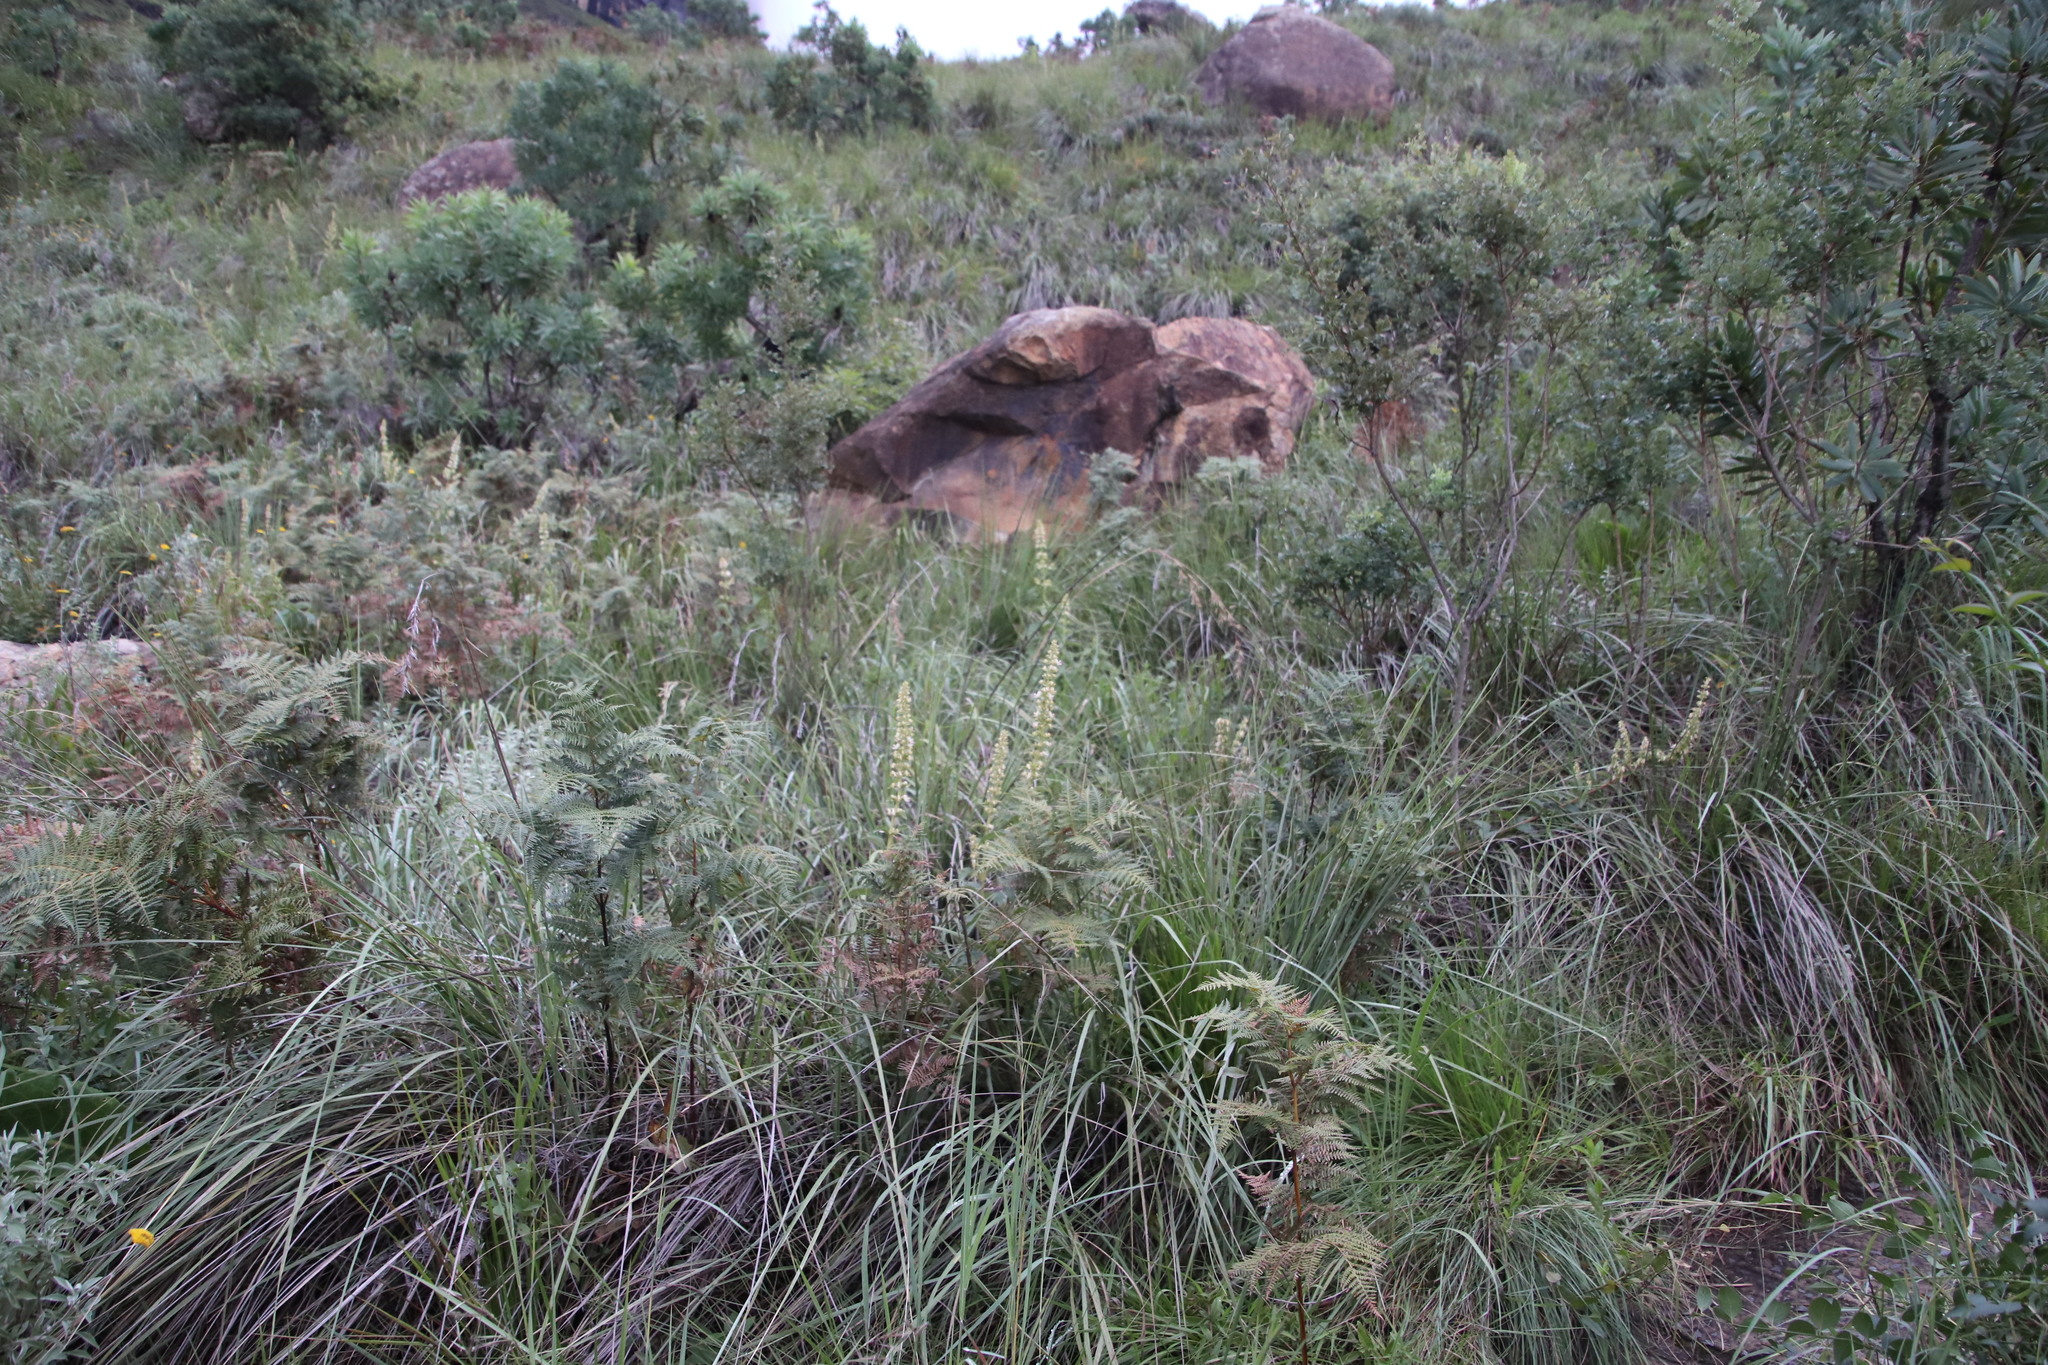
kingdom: Plantae
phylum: Tracheophyta
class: Magnoliopsida
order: Lamiales
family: Lamiaceae
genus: Coleus
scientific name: Coleus calycinus
